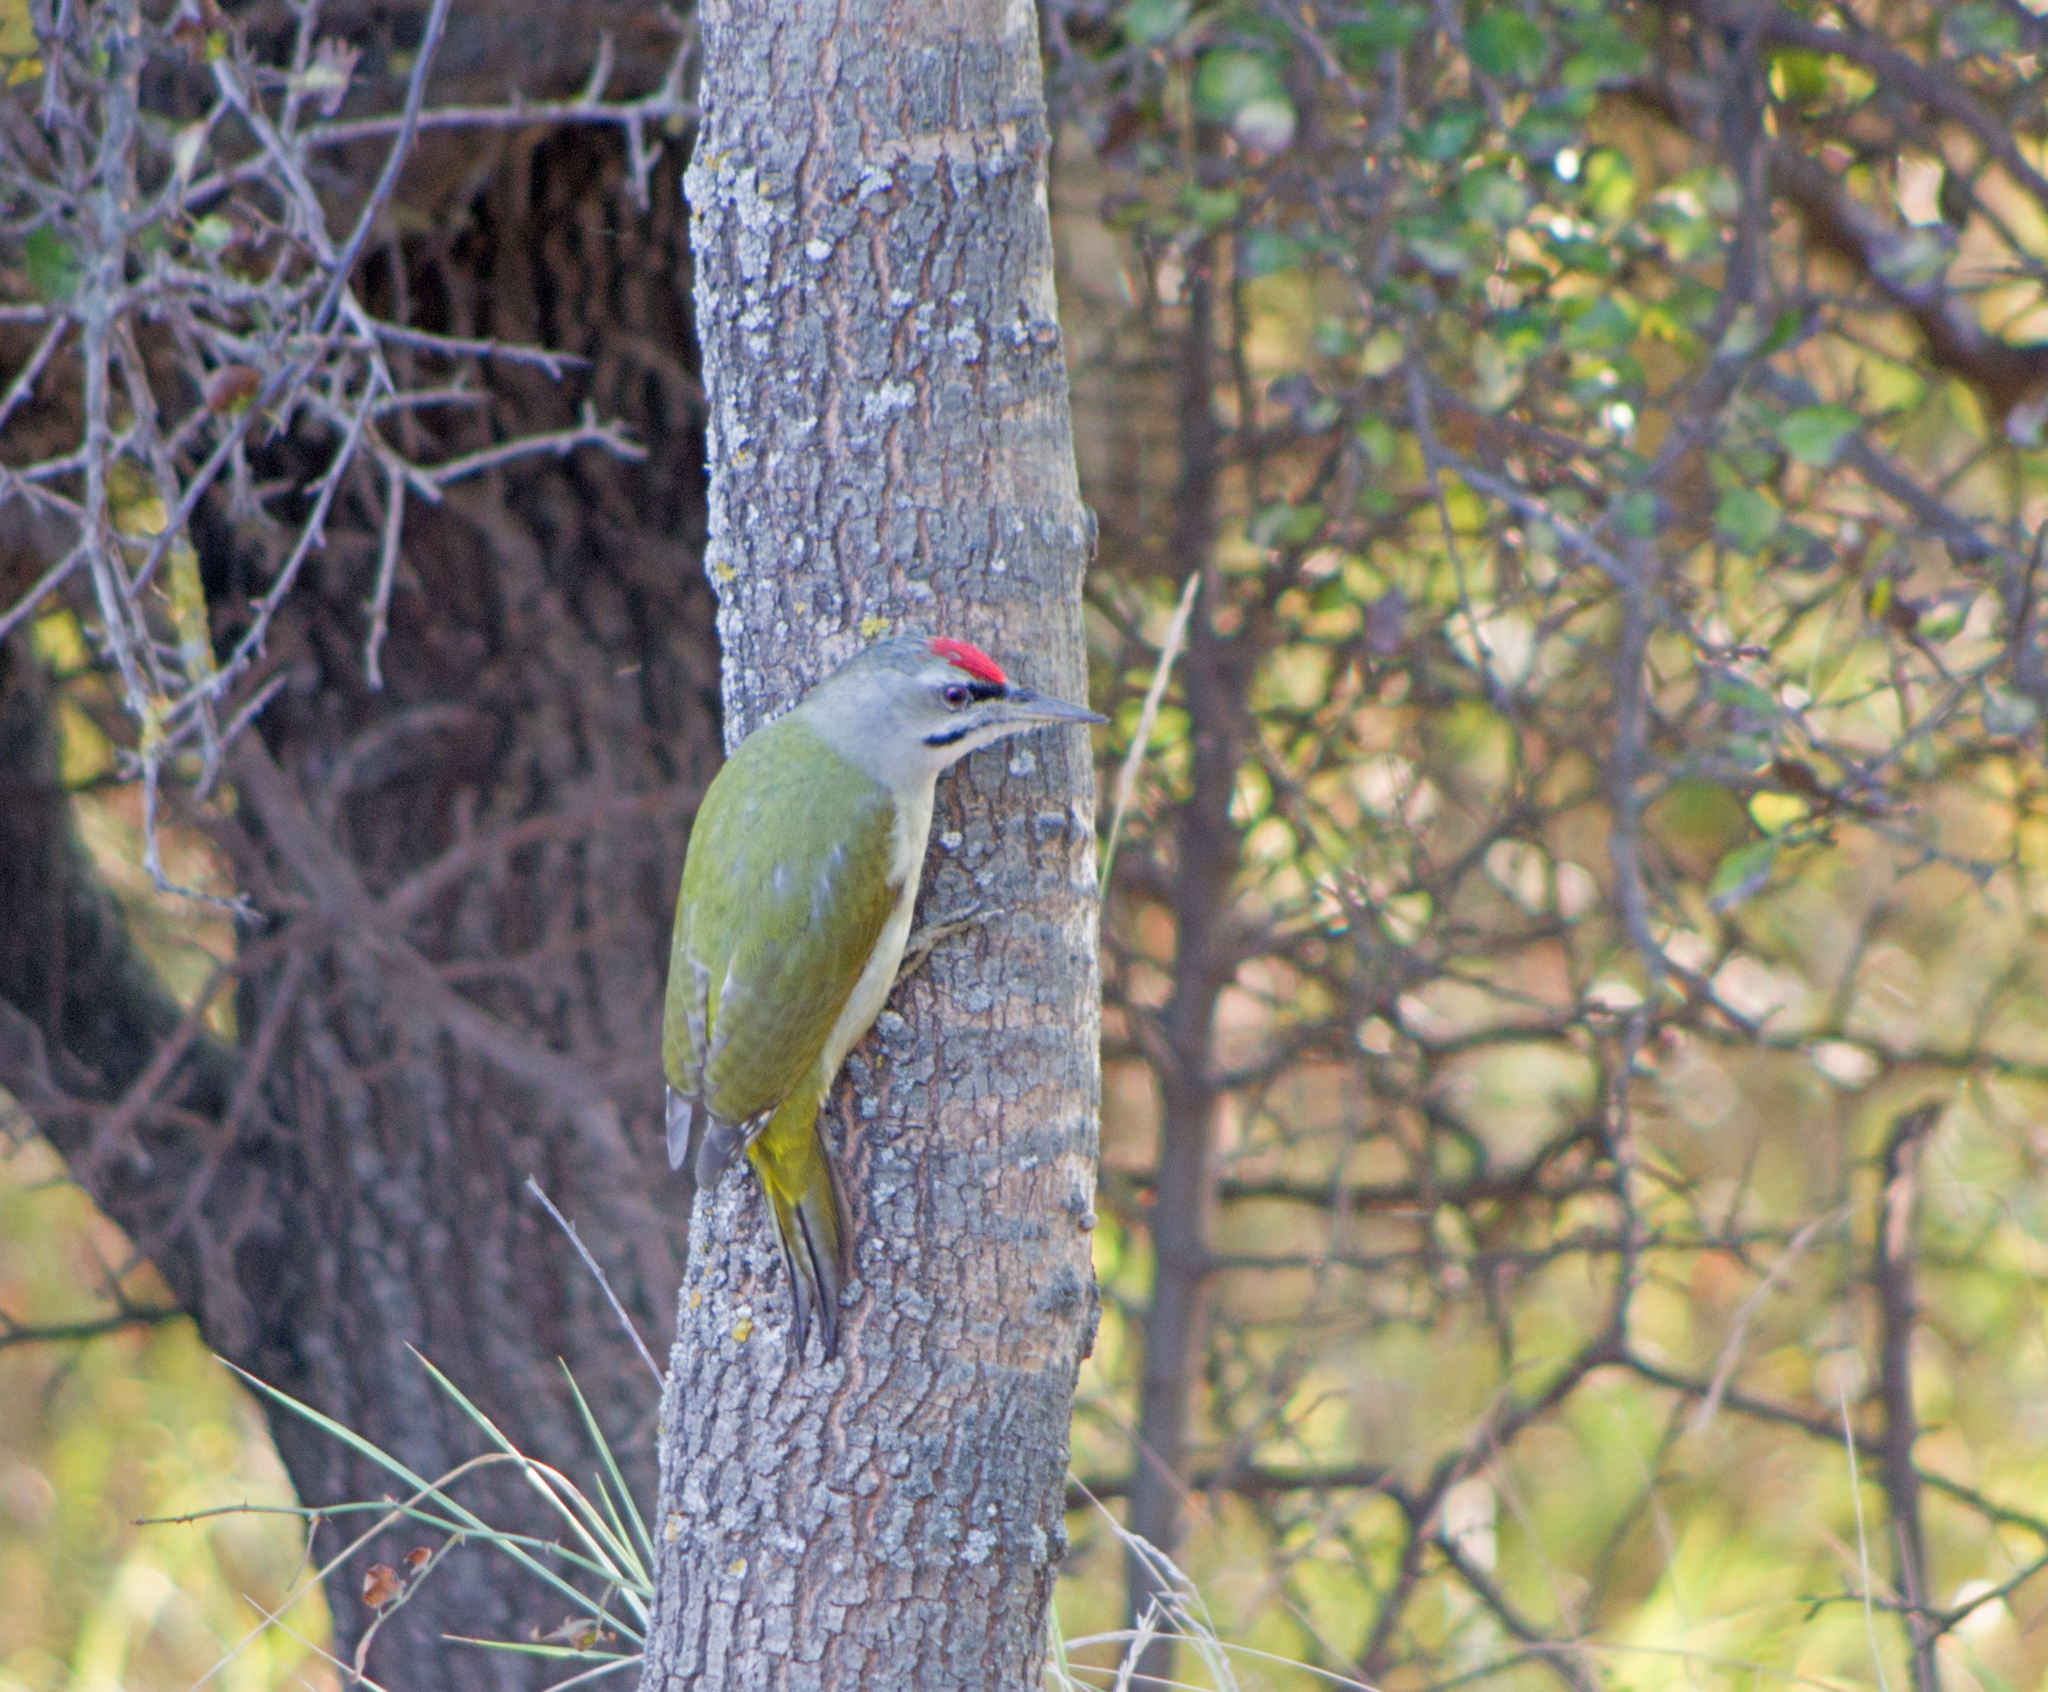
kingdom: Animalia
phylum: Chordata
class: Aves
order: Piciformes
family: Picidae
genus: Picus
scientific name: Picus canus
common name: Grey-headed woodpecker
